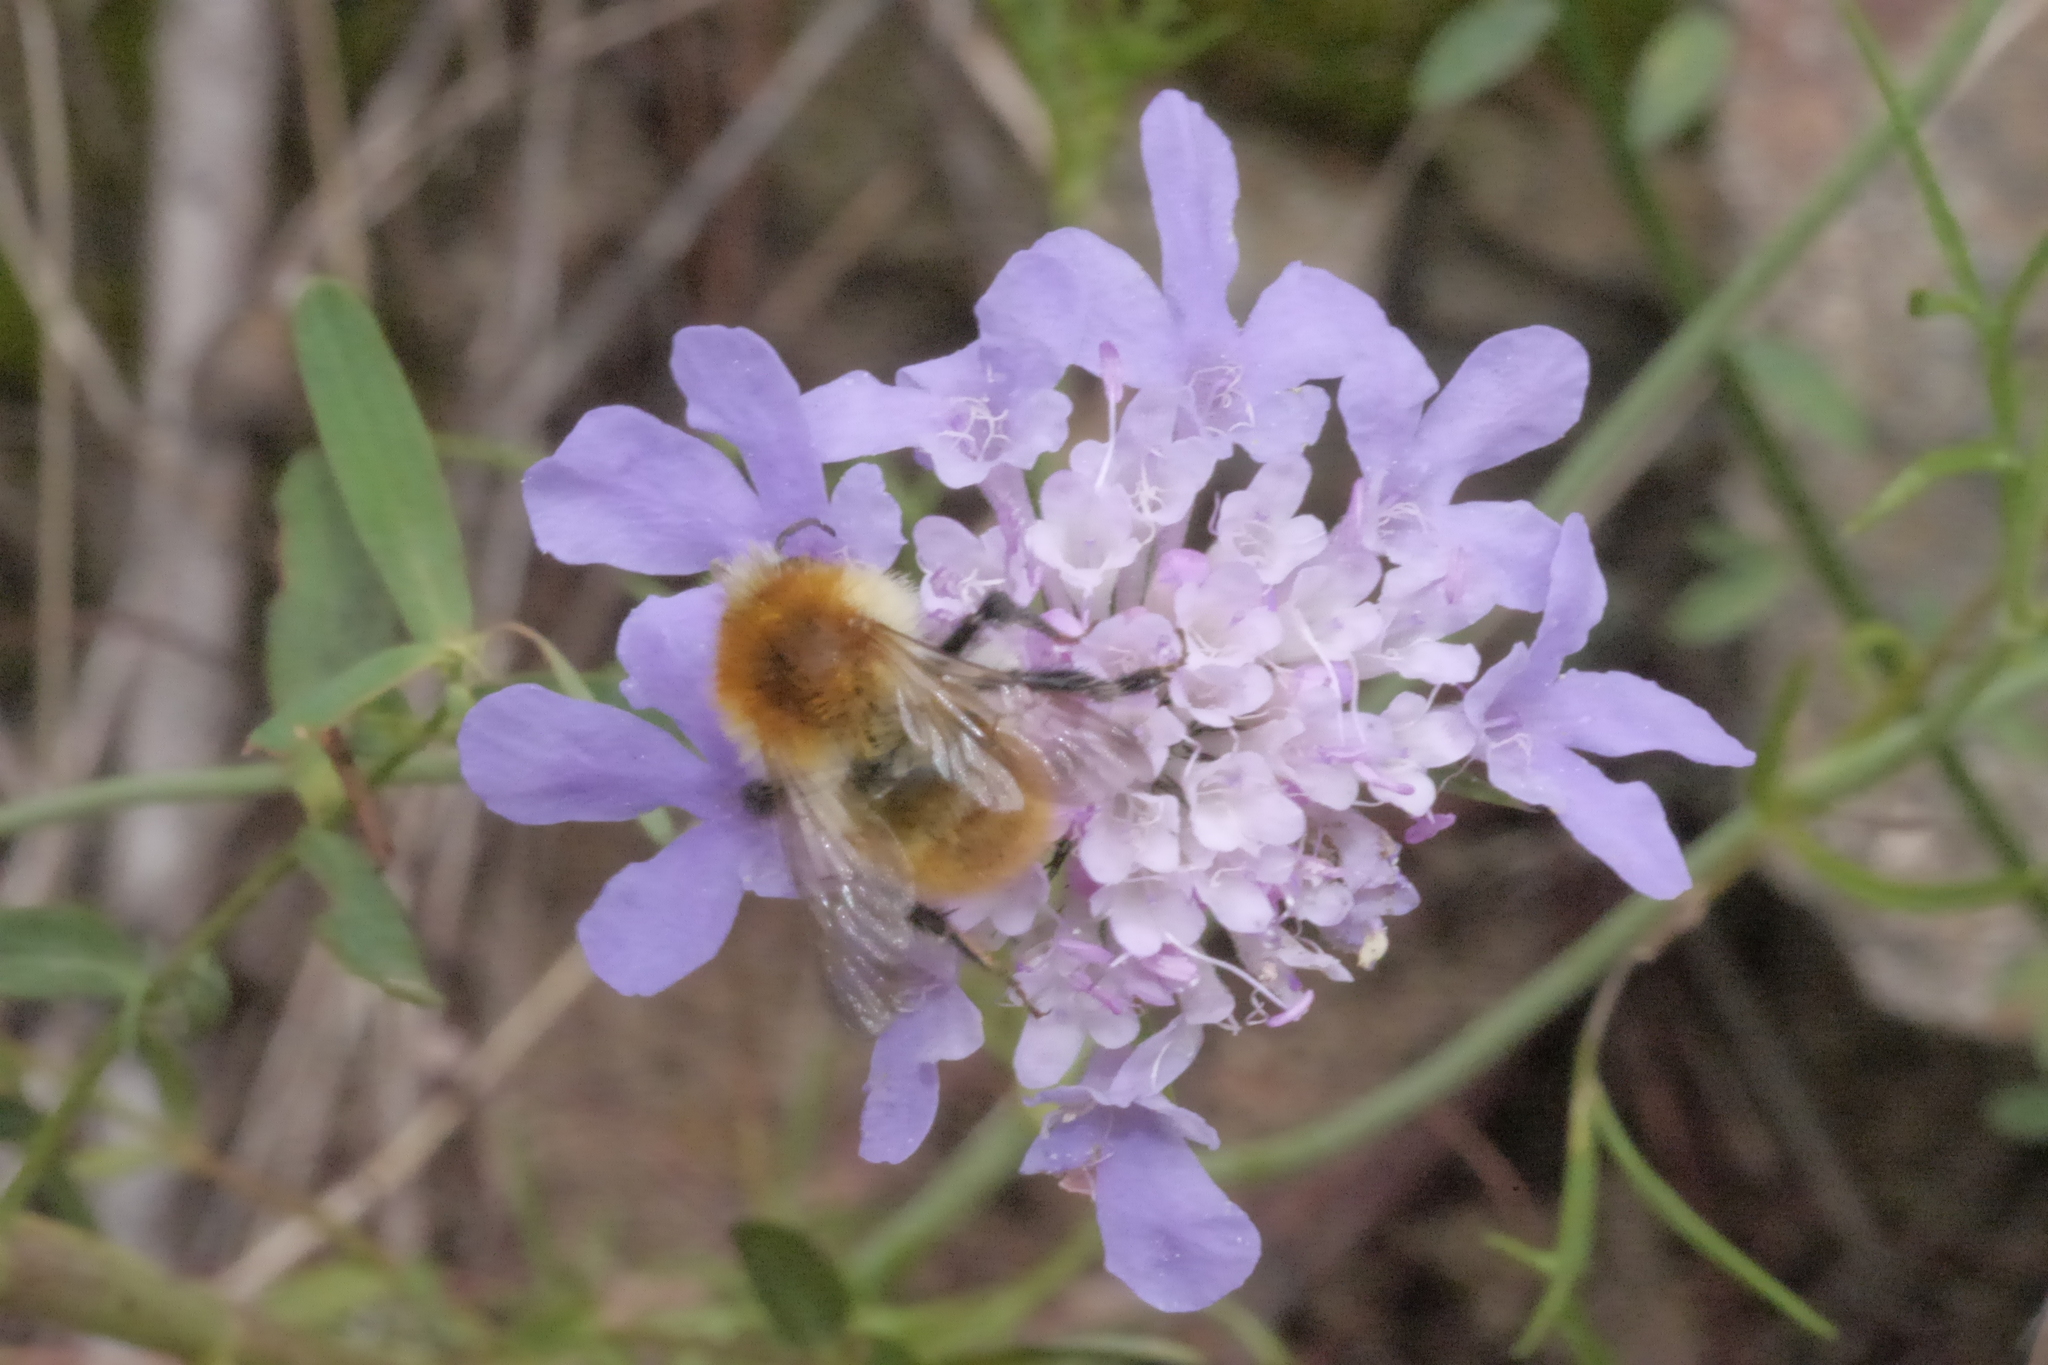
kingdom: Animalia
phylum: Arthropoda
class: Insecta
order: Hymenoptera
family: Apidae
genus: Bombus
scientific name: Bombus pascuorum
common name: Common carder bee
